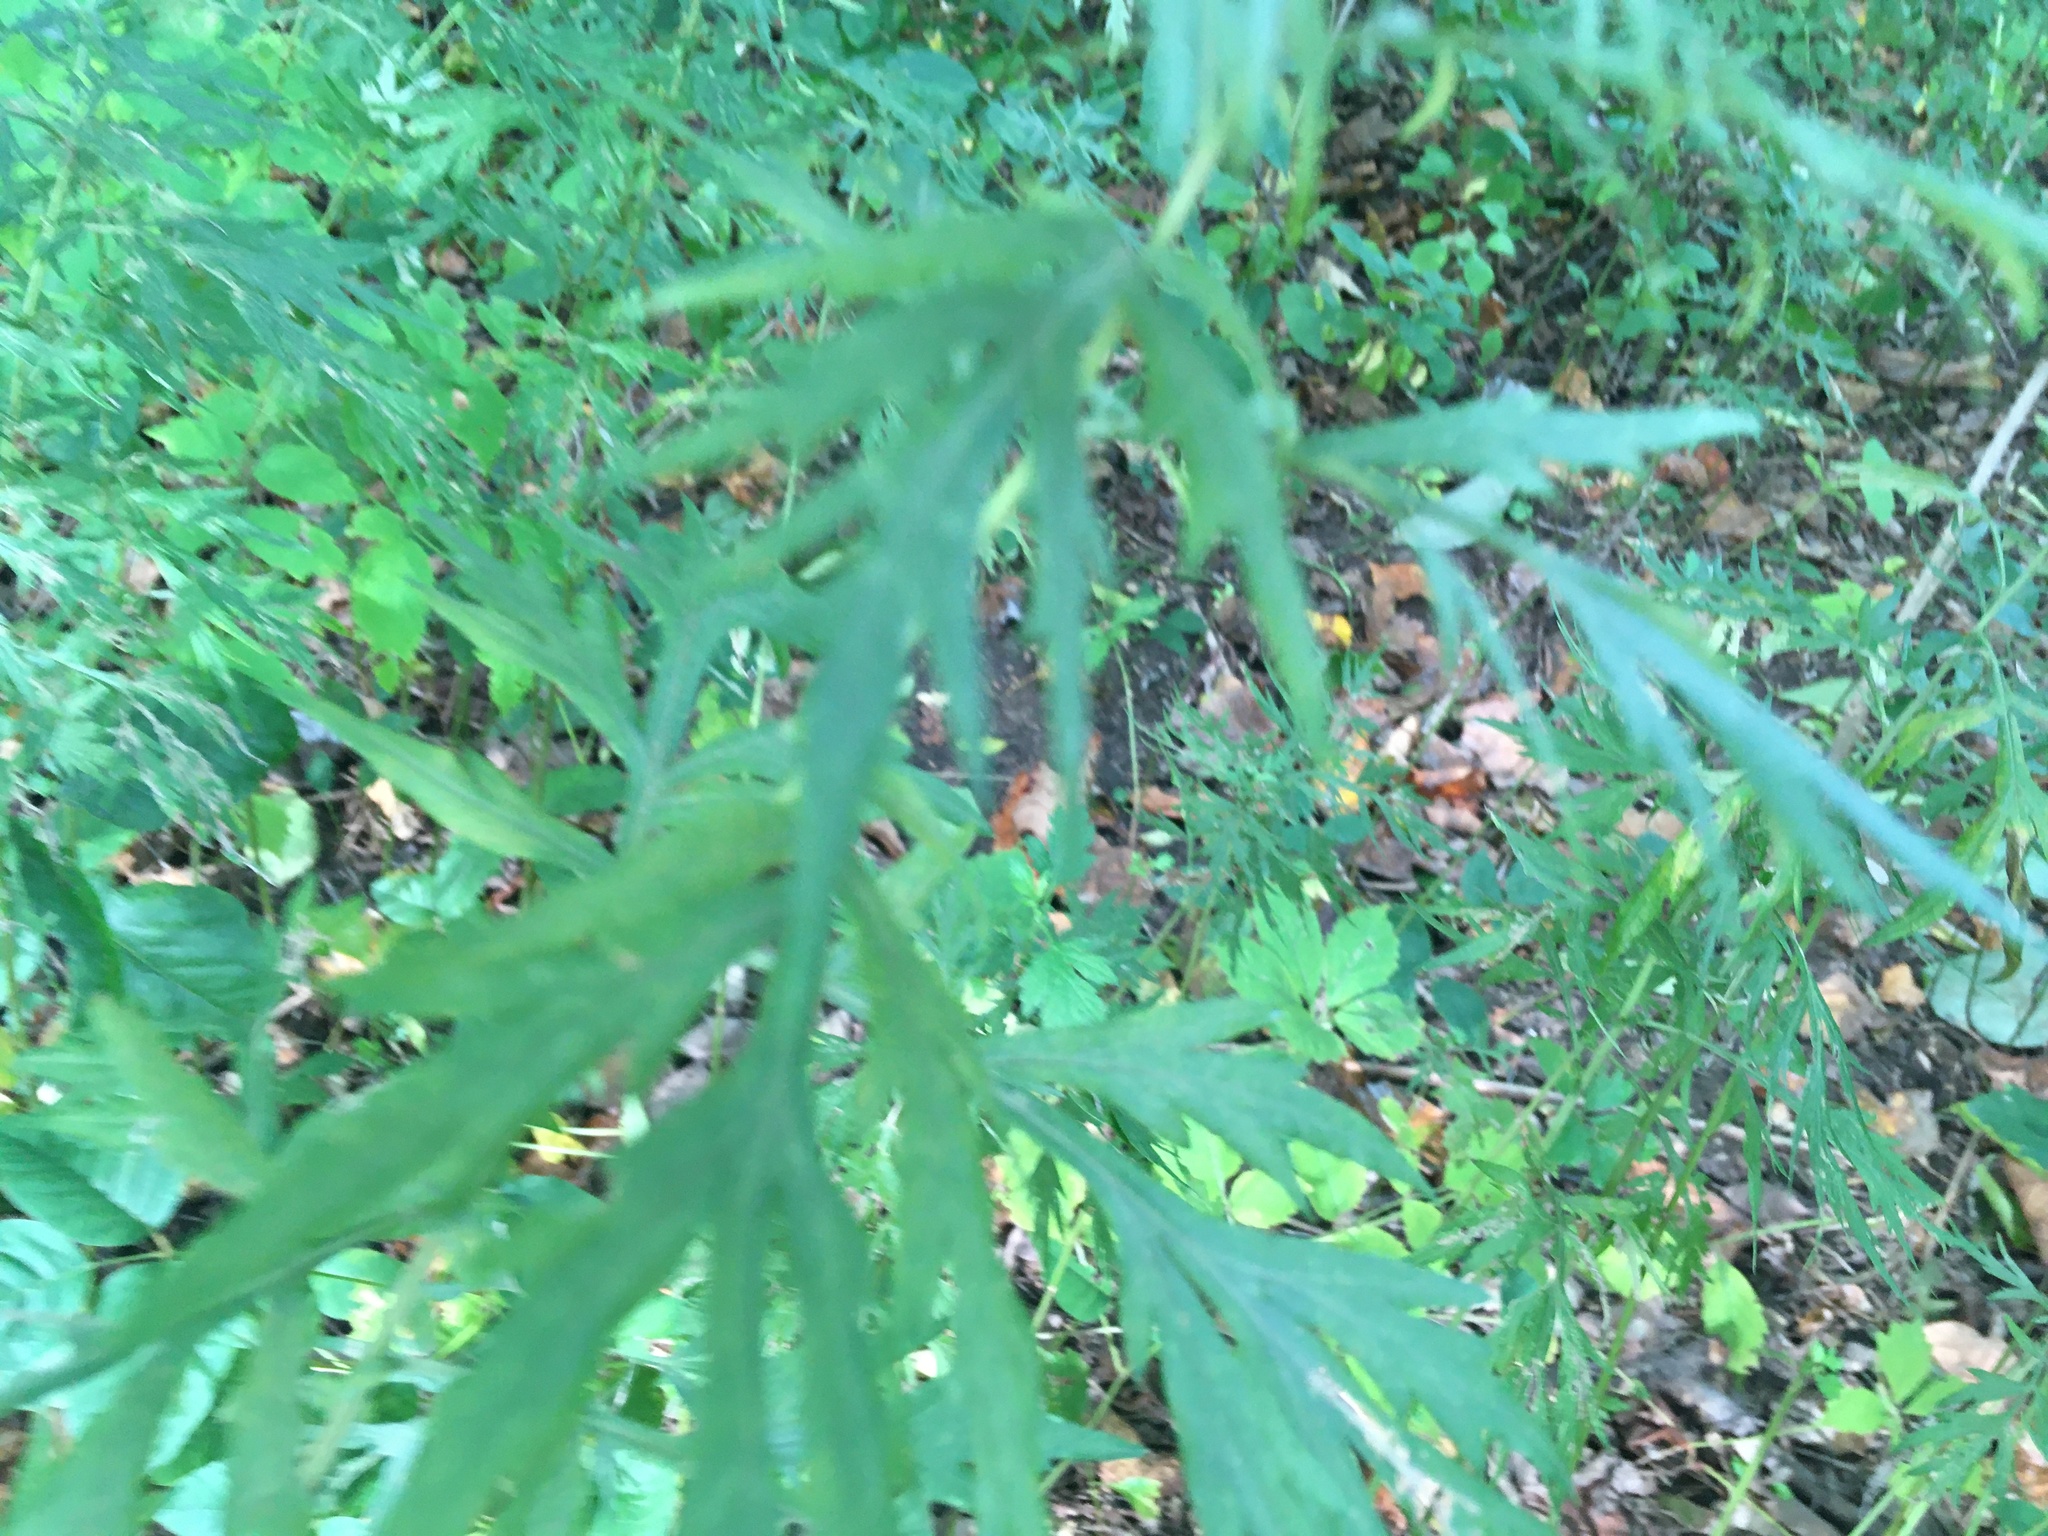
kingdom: Plantae
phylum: Tracheophyta
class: Magnoliopsida
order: Asterales
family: Asteraceae
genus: Artemisia
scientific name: Artemisia vulgaris
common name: Mugwort
